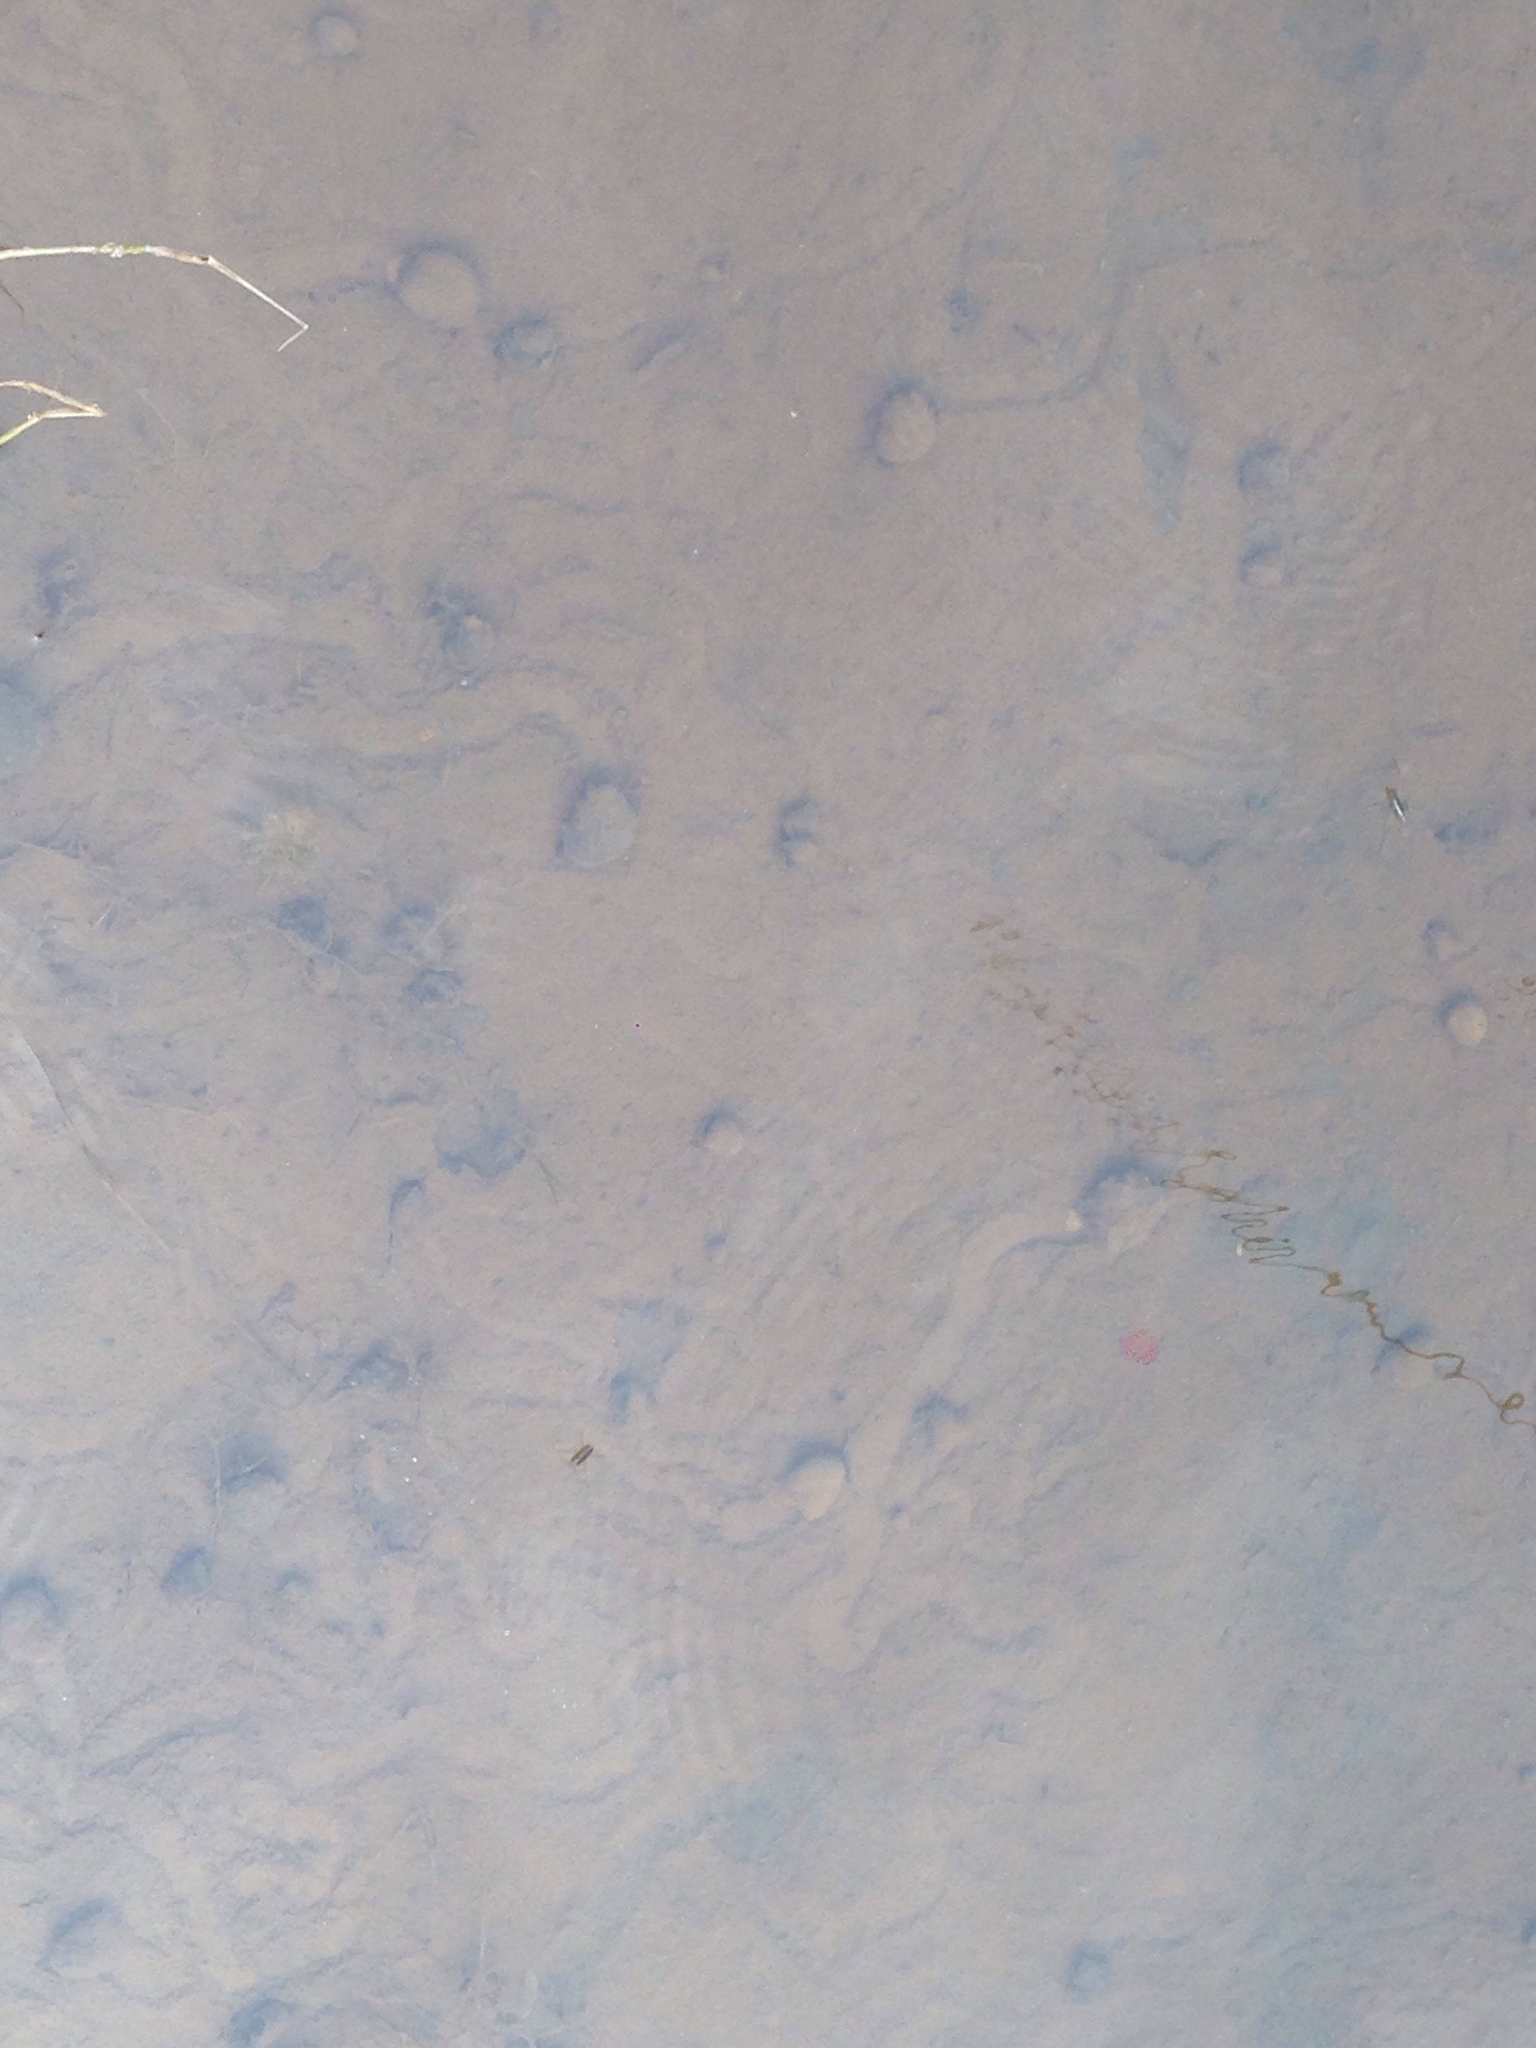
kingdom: Animalia
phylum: Mollusca
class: Gastropoda
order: Architaenioglossa
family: Viviparidae
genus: Cipangopaludina
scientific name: Cipangopaludina chinensis
